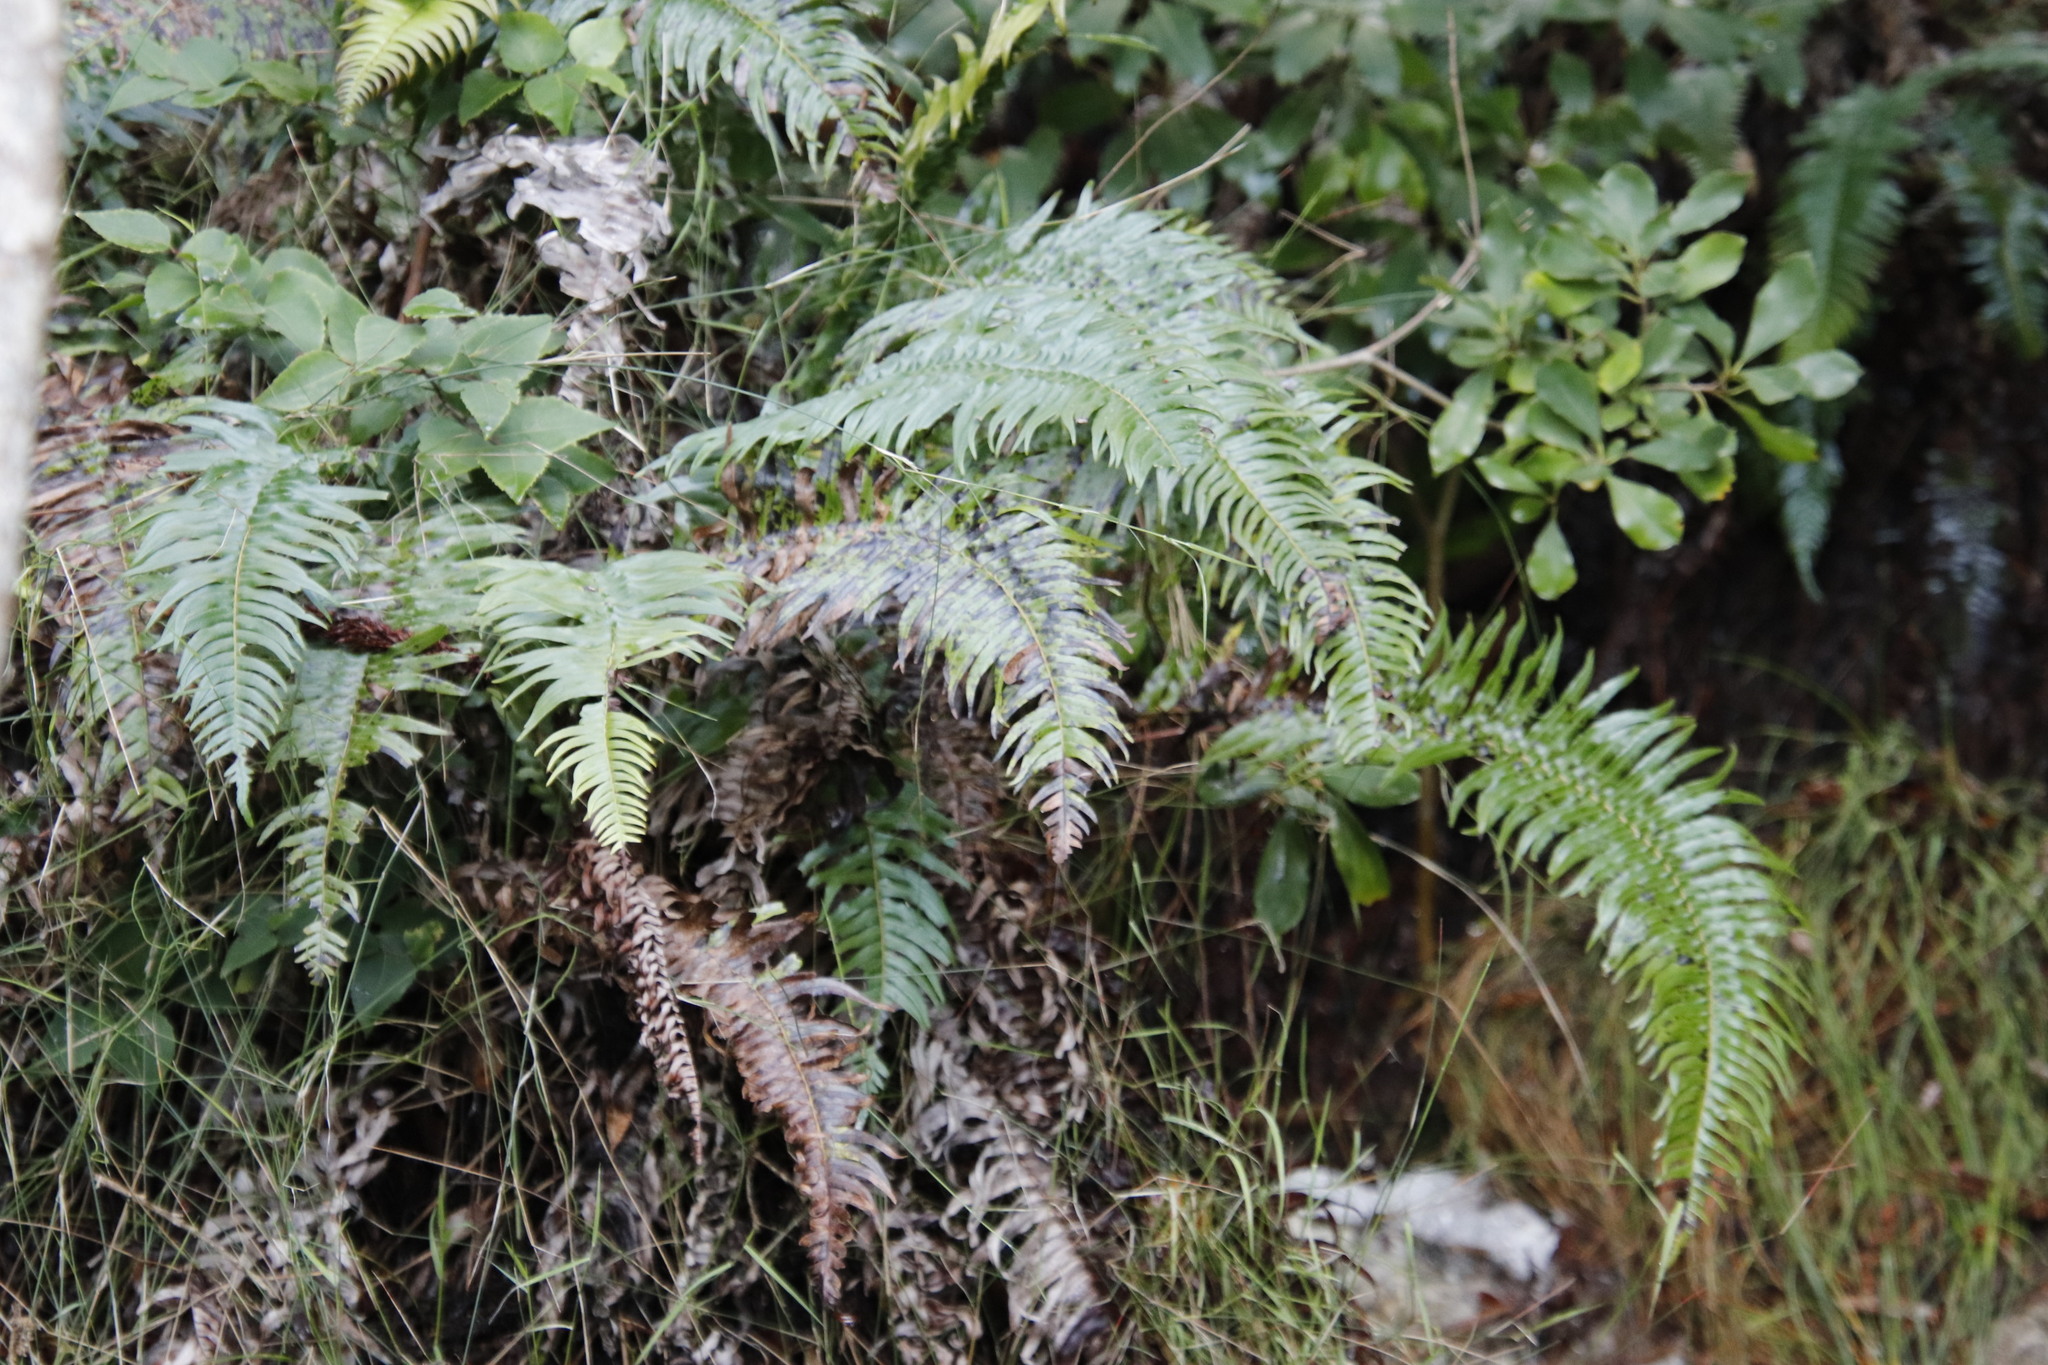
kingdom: Plantae
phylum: Tracheophyta
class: Polypodiopsida
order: Polypodiales
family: Blechnaceae
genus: Blechnum
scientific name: Blechnum punctulatum
